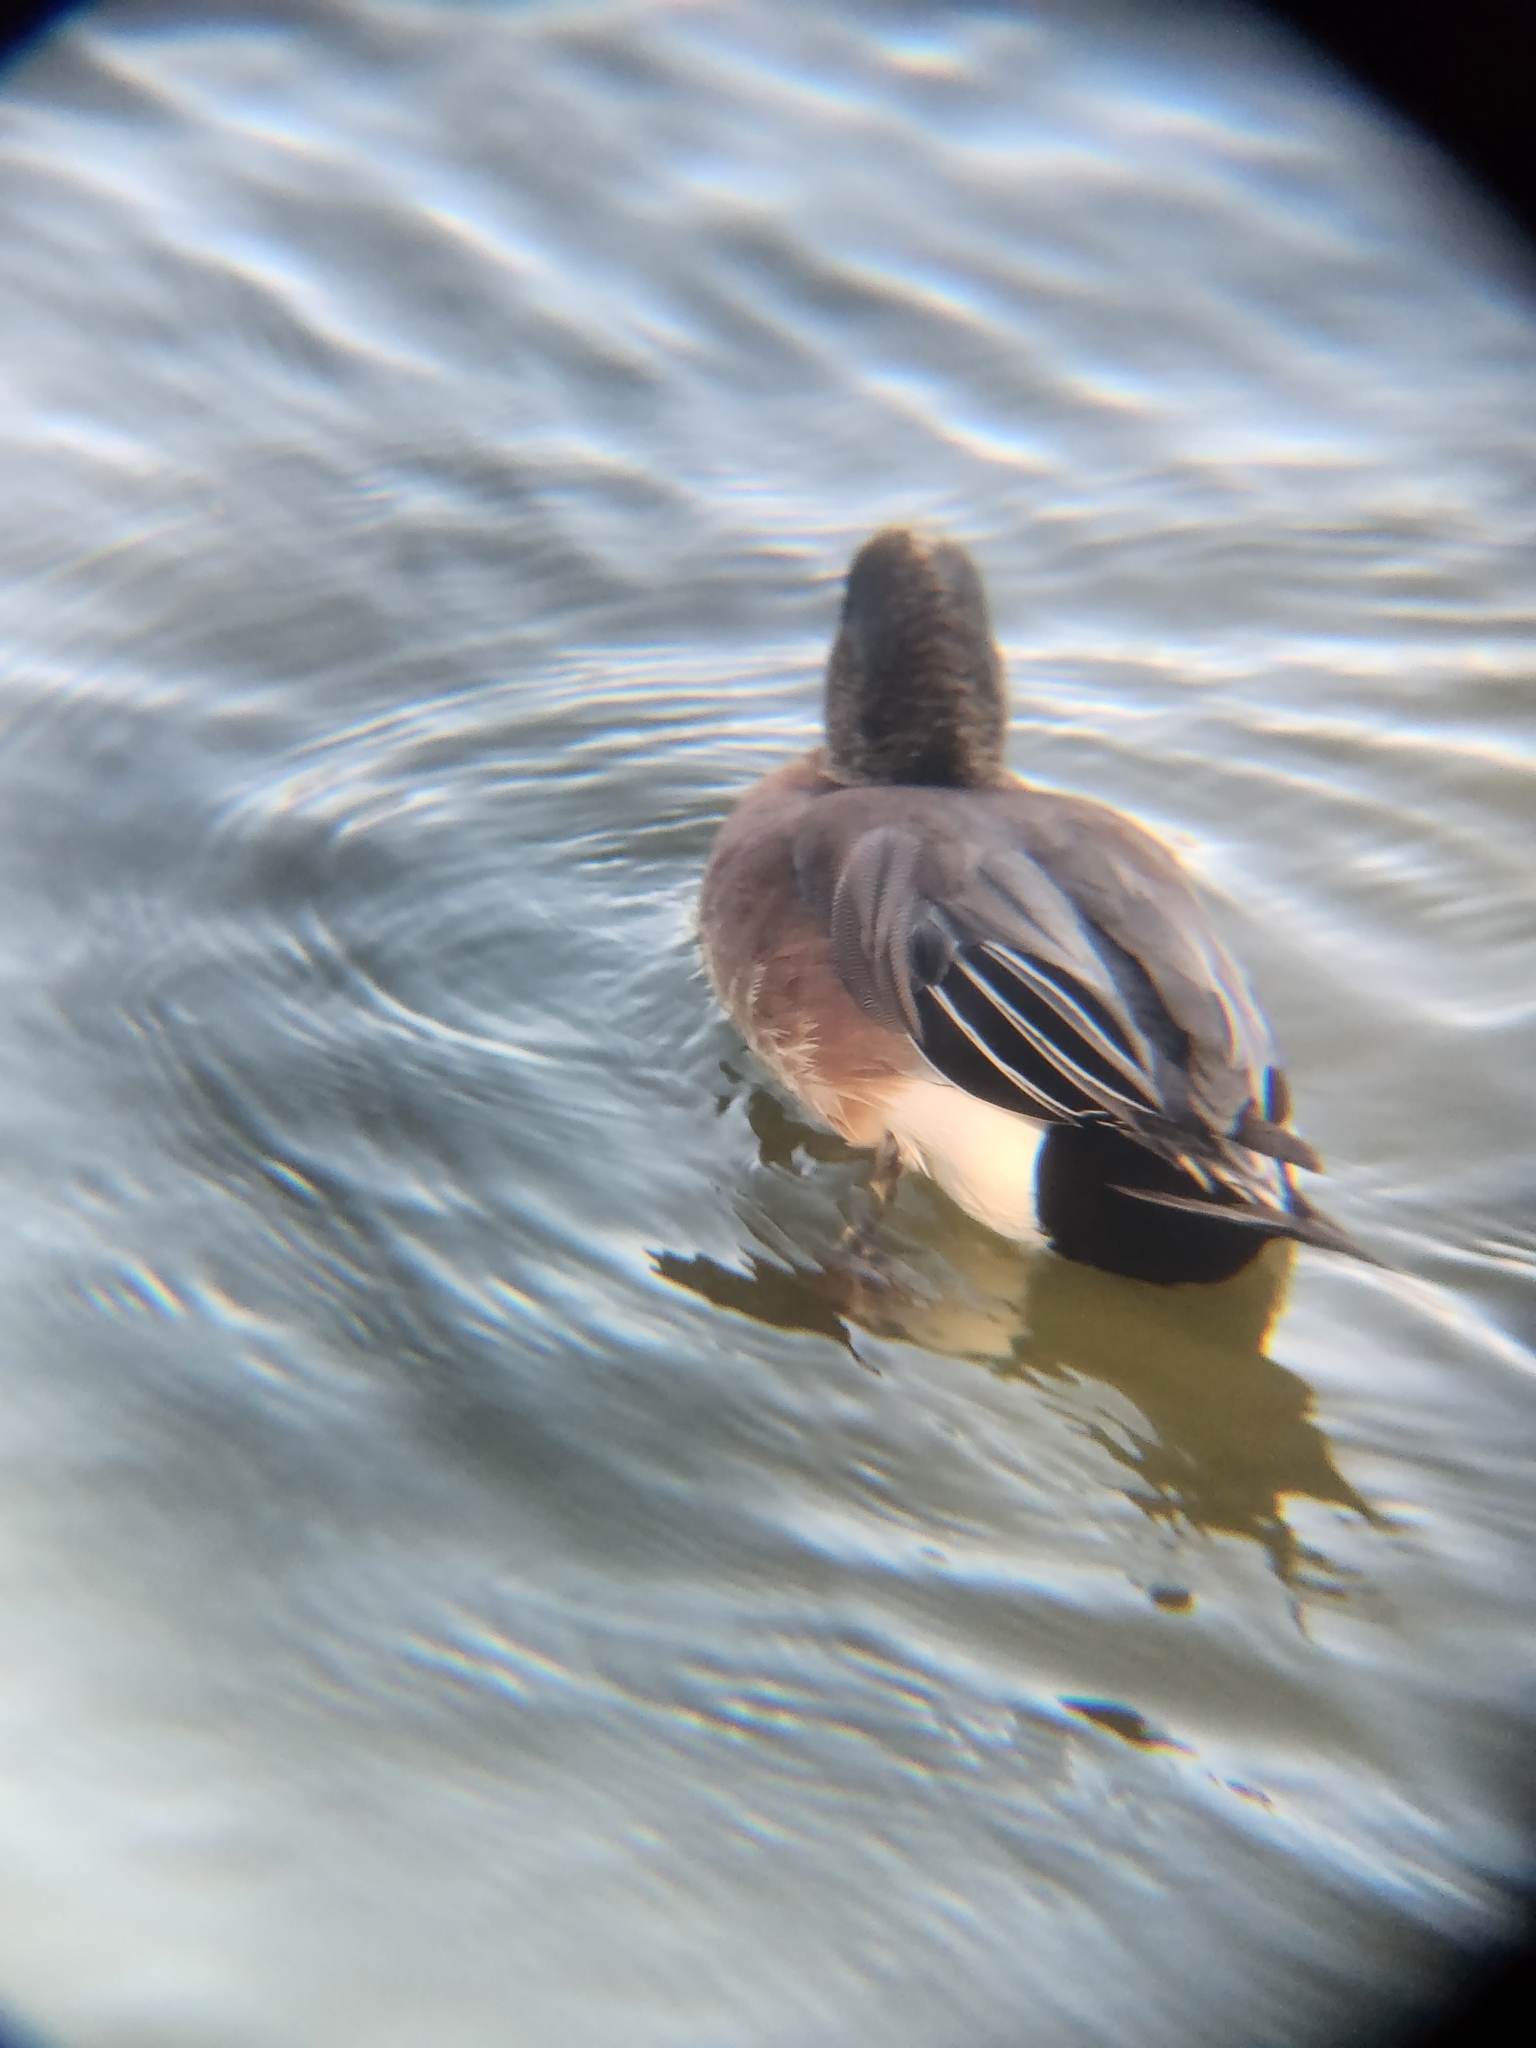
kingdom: Animalia
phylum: Chordata
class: Aves
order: Anseriformes
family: Anatidae
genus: Mareca
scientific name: Mareca americana
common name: American wigeon
